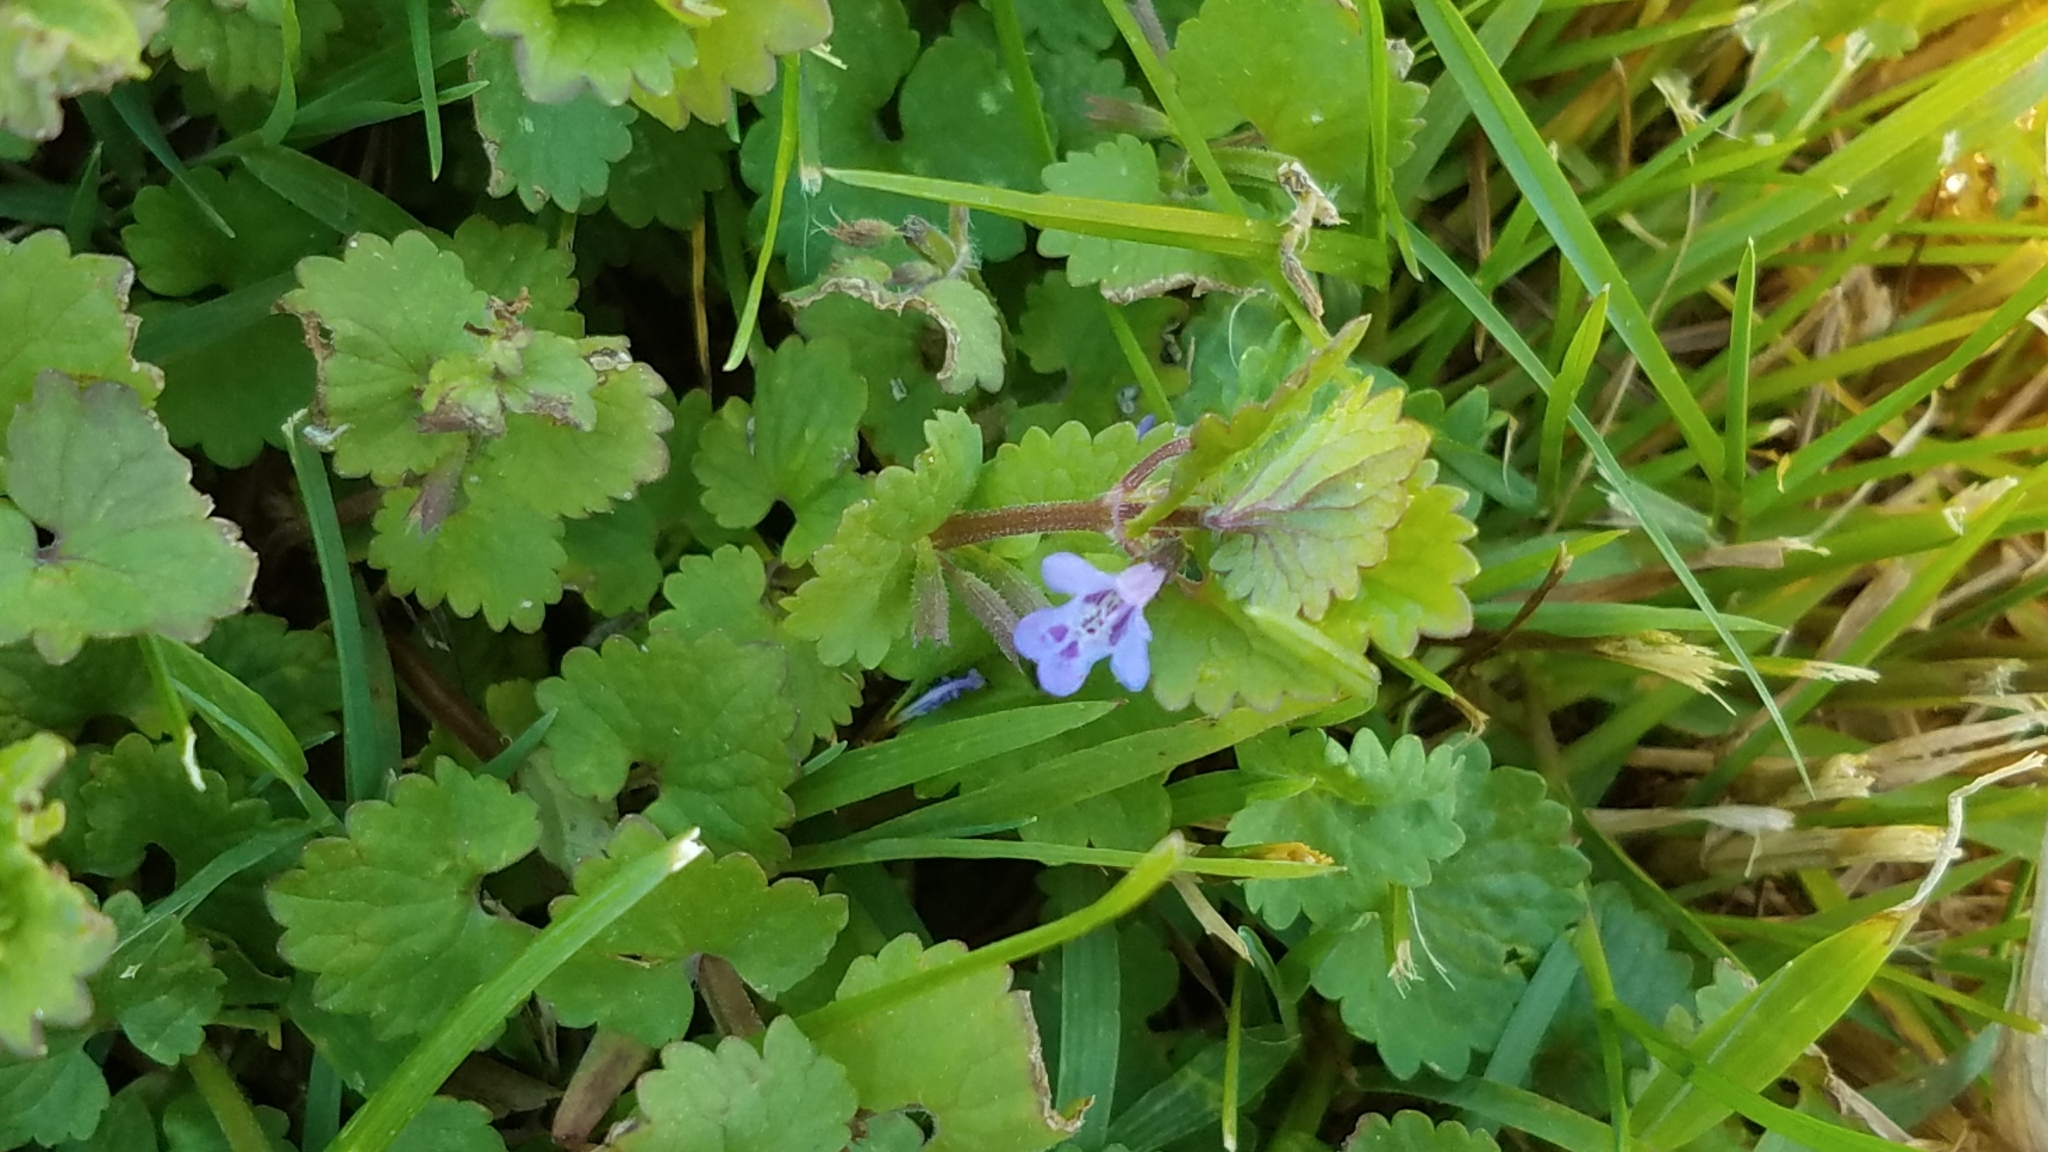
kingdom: Plantae
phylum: Tracheophyta
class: Magnoliopsida
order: Lamiales
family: Lamiaceae
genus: Glechoma
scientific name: Glechoma hederacea
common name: Ground ivy
